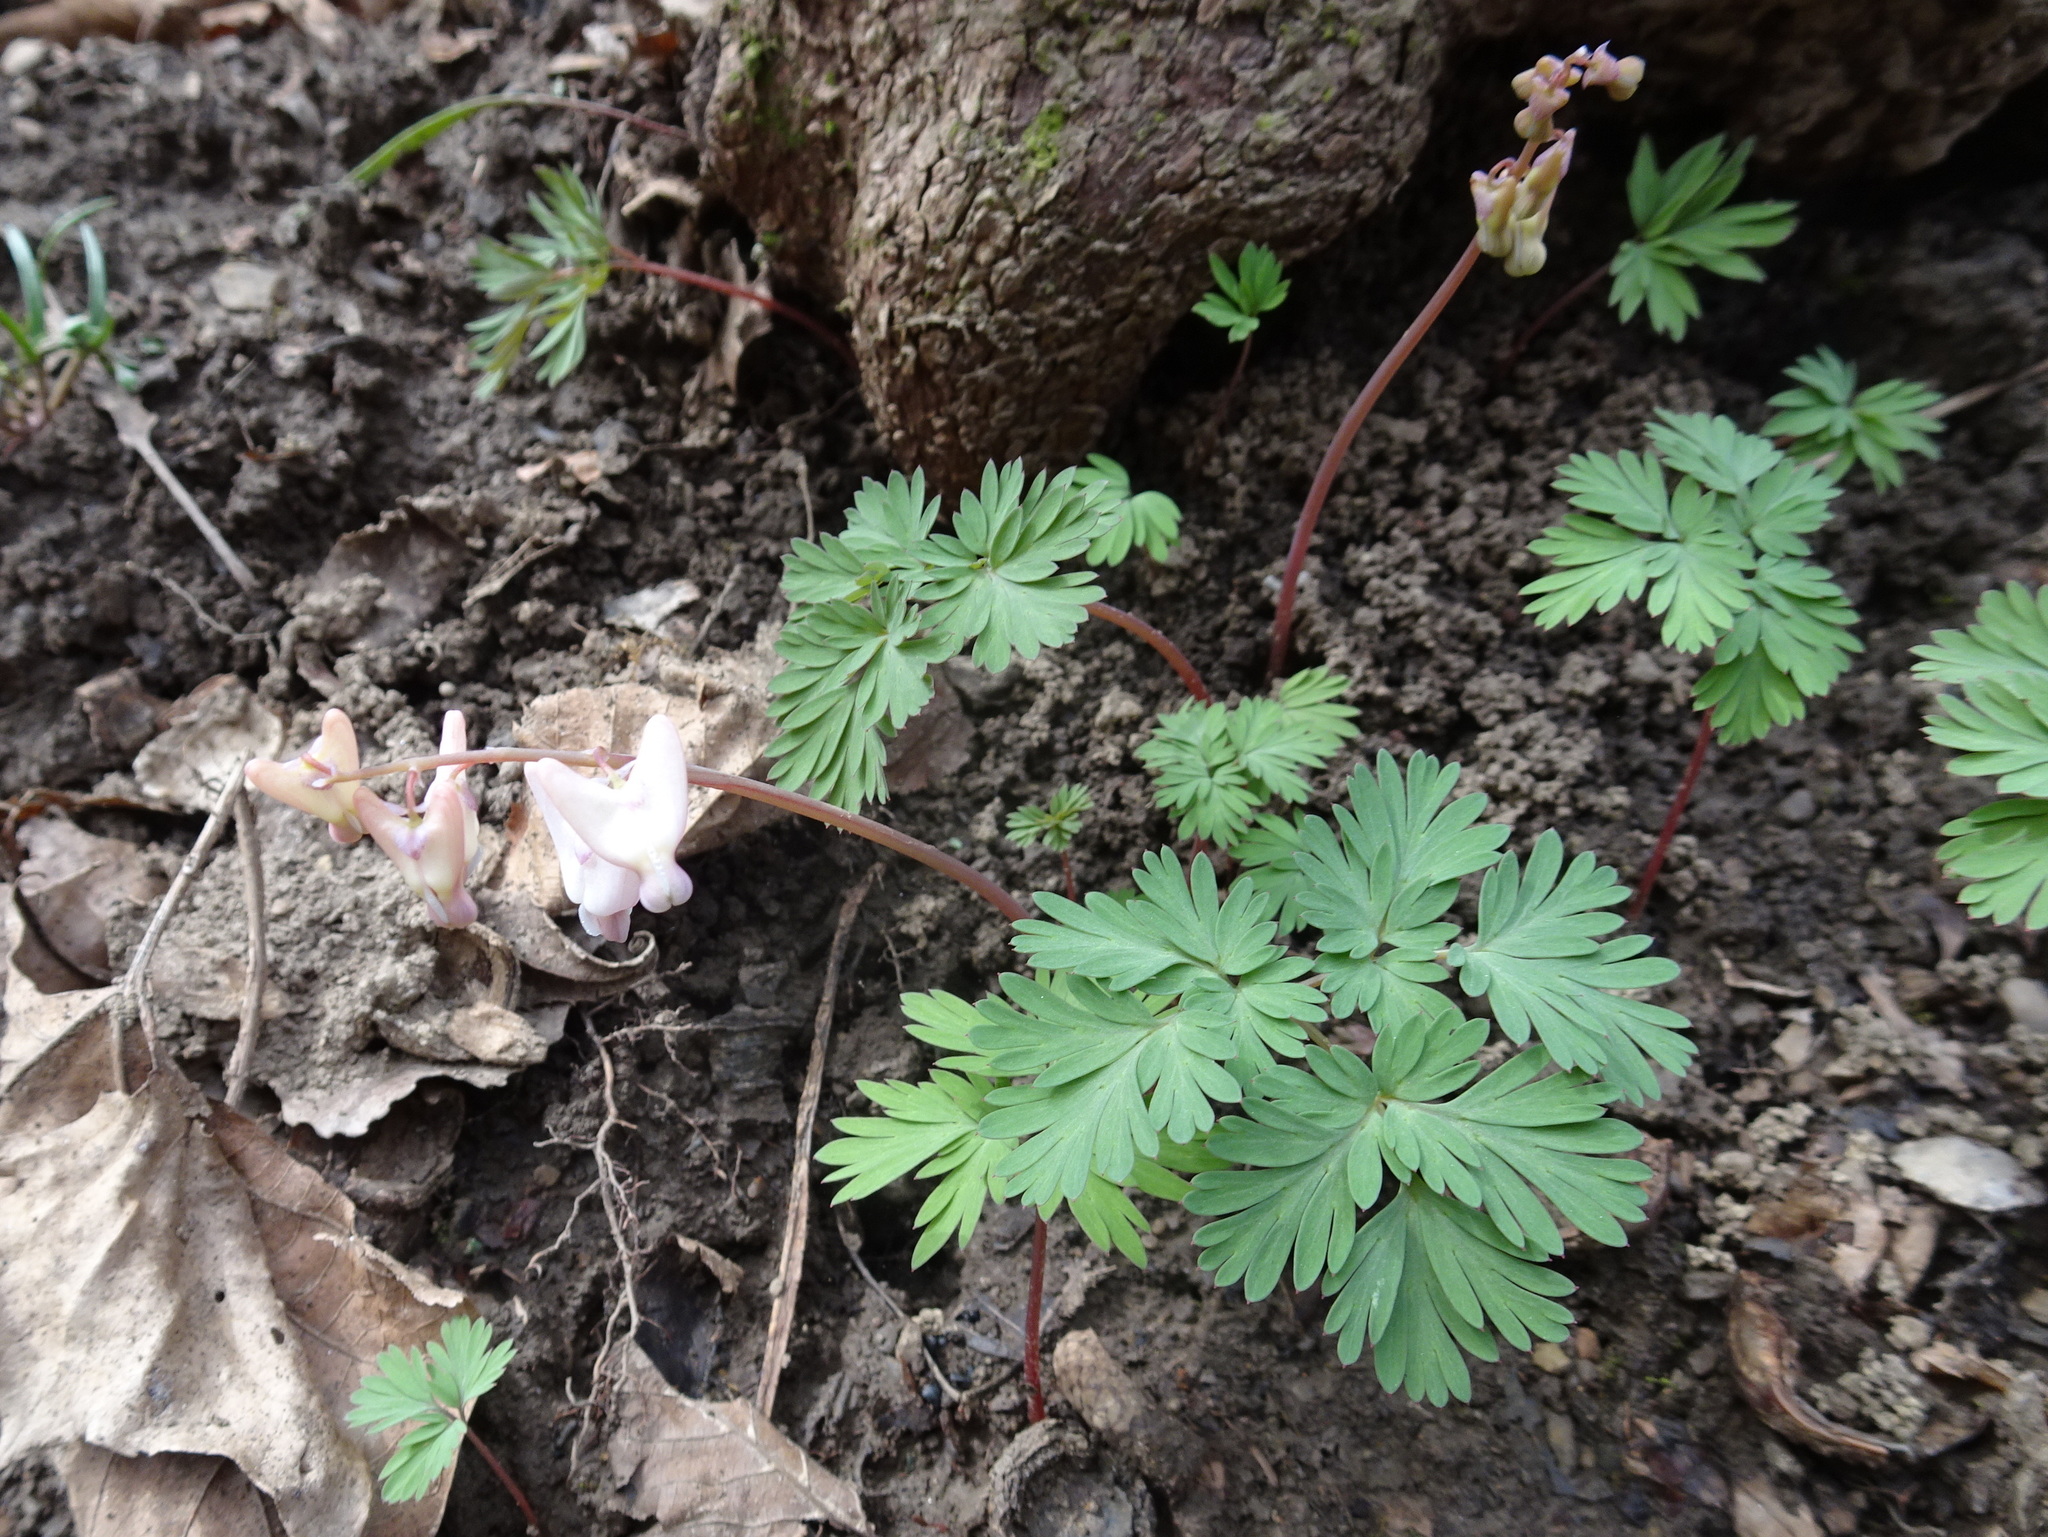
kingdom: Plantae
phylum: Tracheophyta
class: Magnoliopsida
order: Ranunculales
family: Papaveraceae
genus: Dicentra
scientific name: Dicentra cucullaria
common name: Dutchman's breeches
